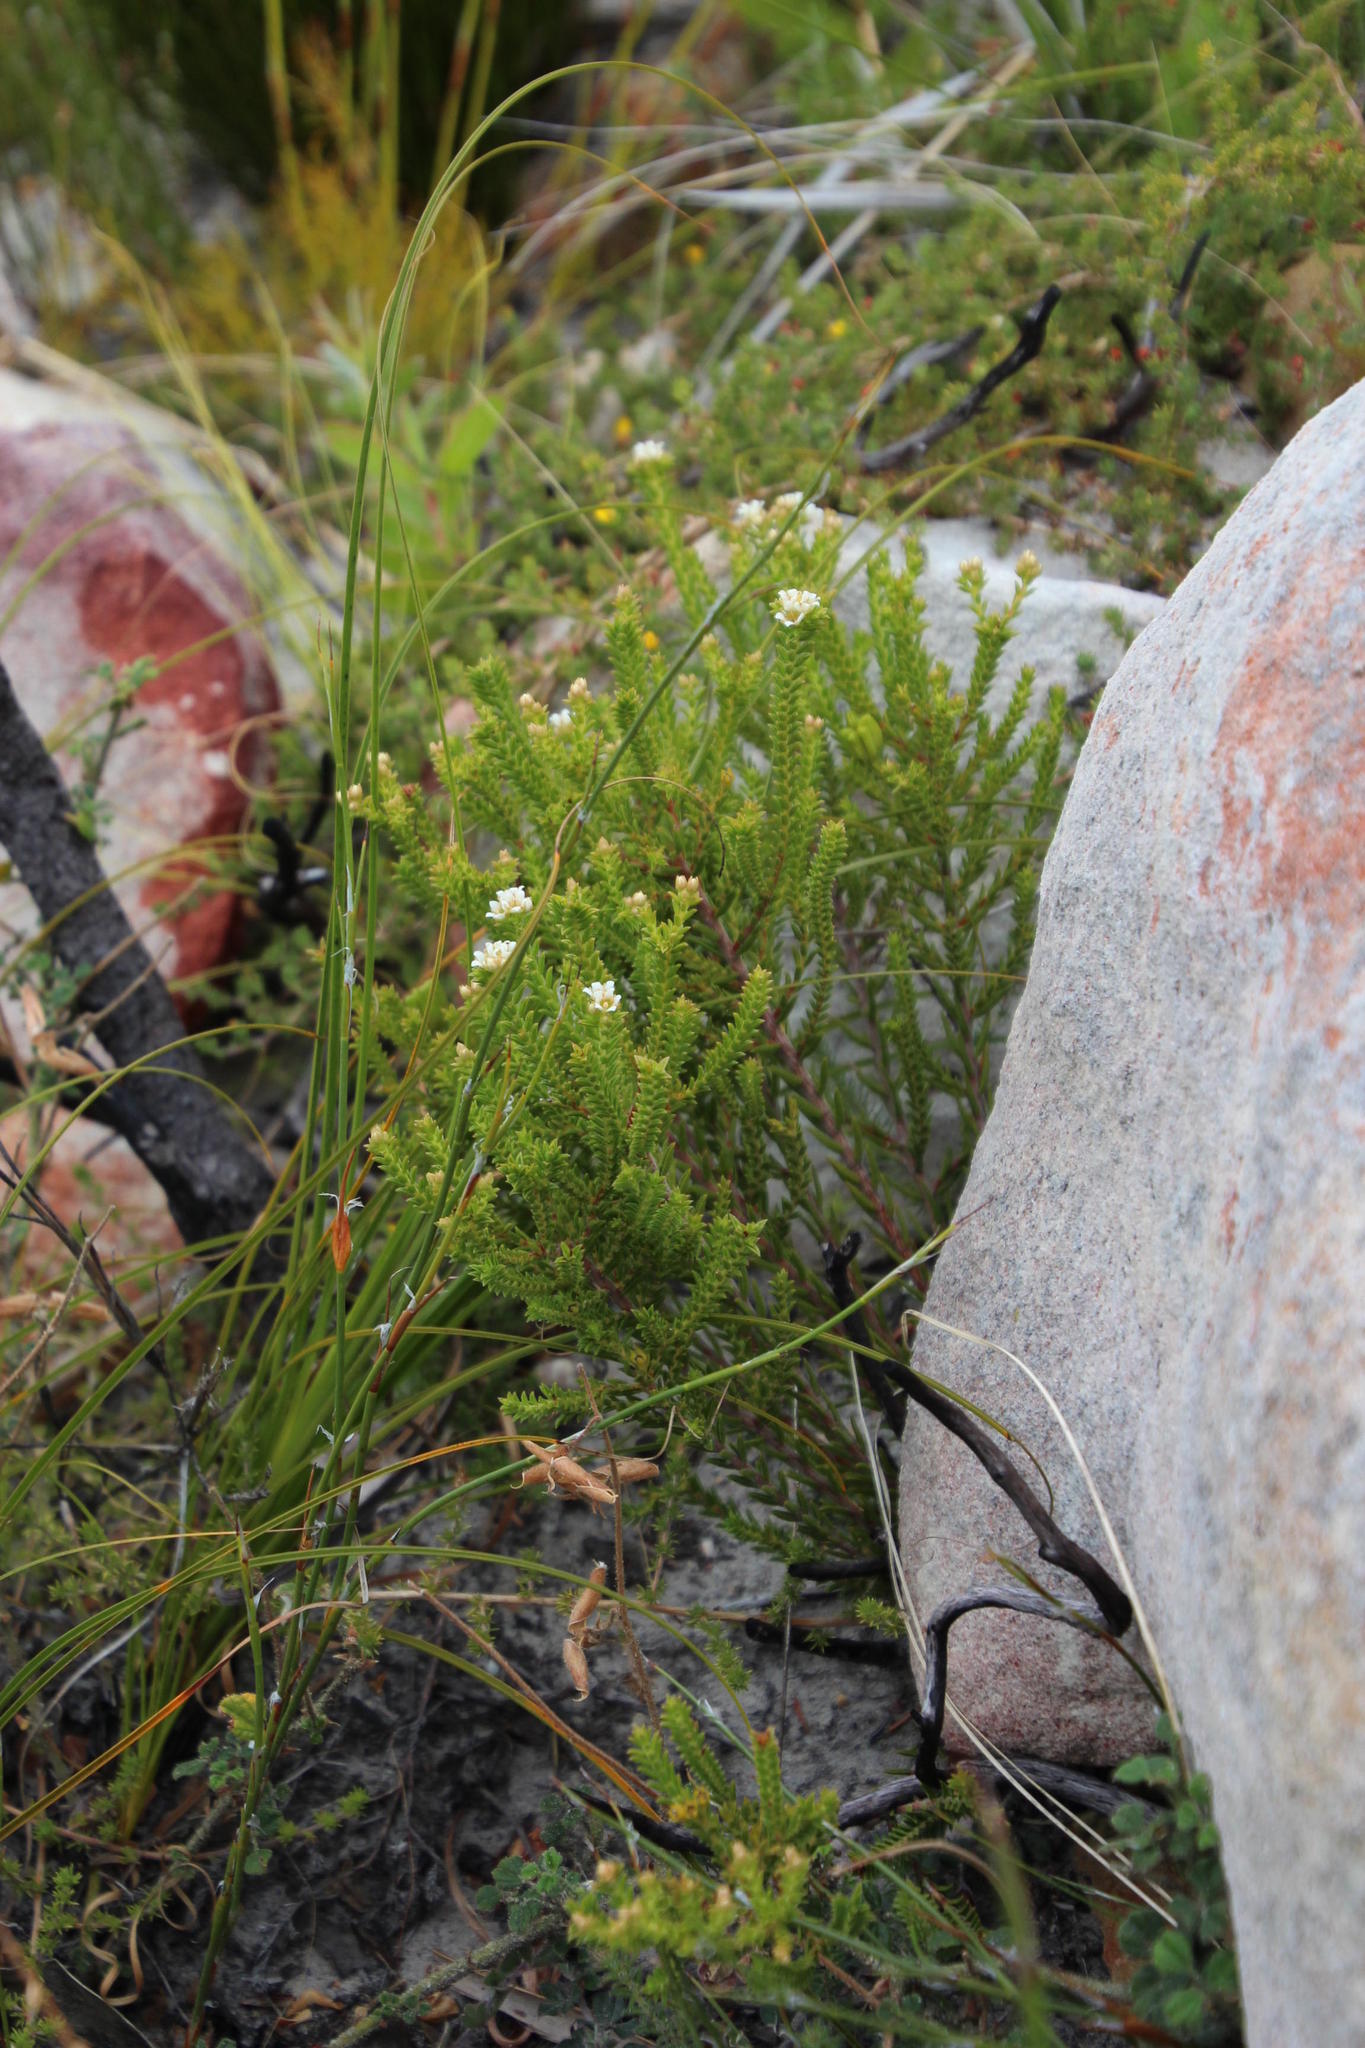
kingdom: Plantae
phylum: Tracheophyta
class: Magnoliopsida
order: Sapindales
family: Rutaceae
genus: Diosma
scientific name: Diosma oppositifolia
